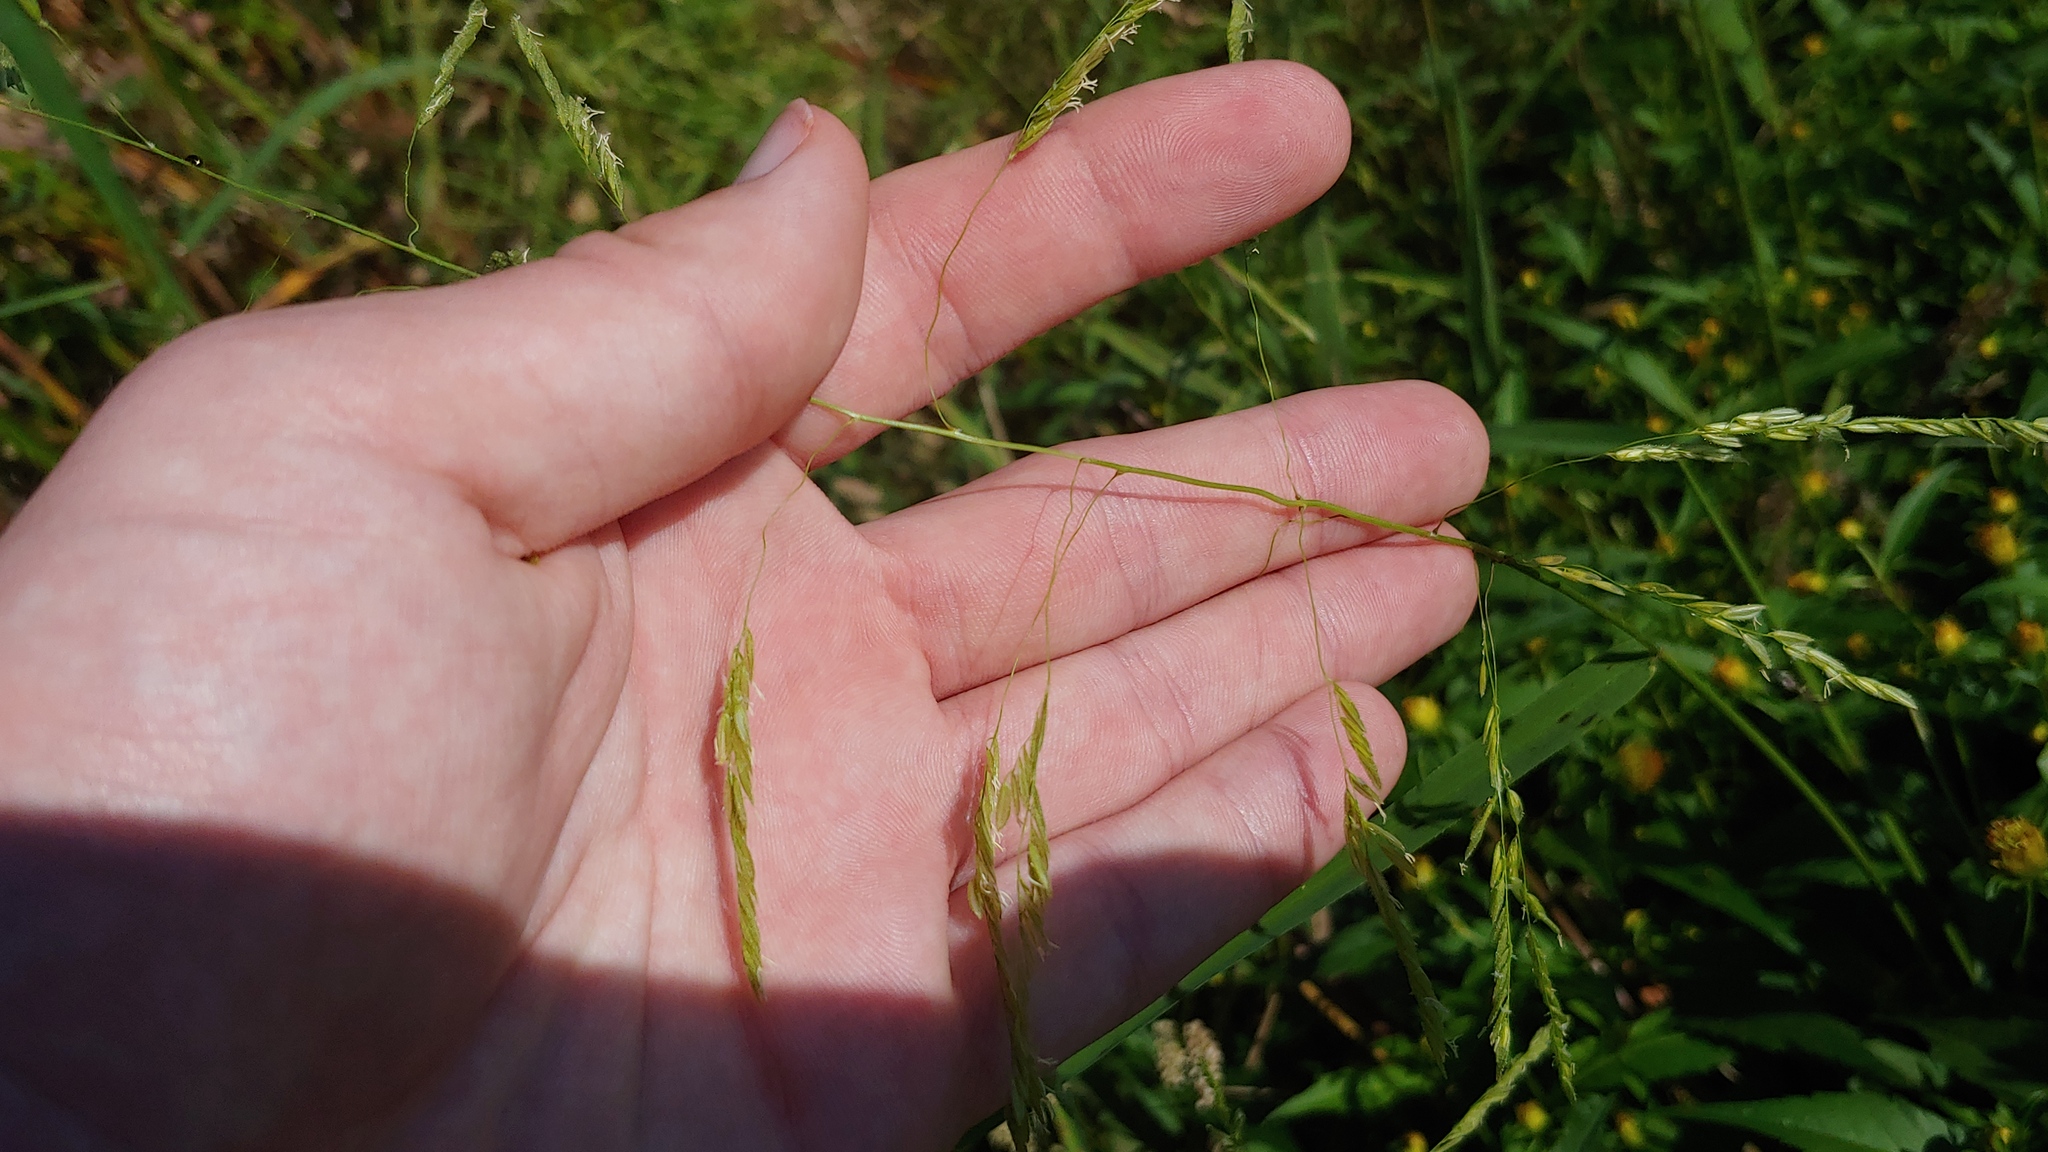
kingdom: Plantae
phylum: Tracheophyta
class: Liliopsida
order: Poales
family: Poaceae
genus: Leersia
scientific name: Leersia oryzoides
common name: Cut-grass
